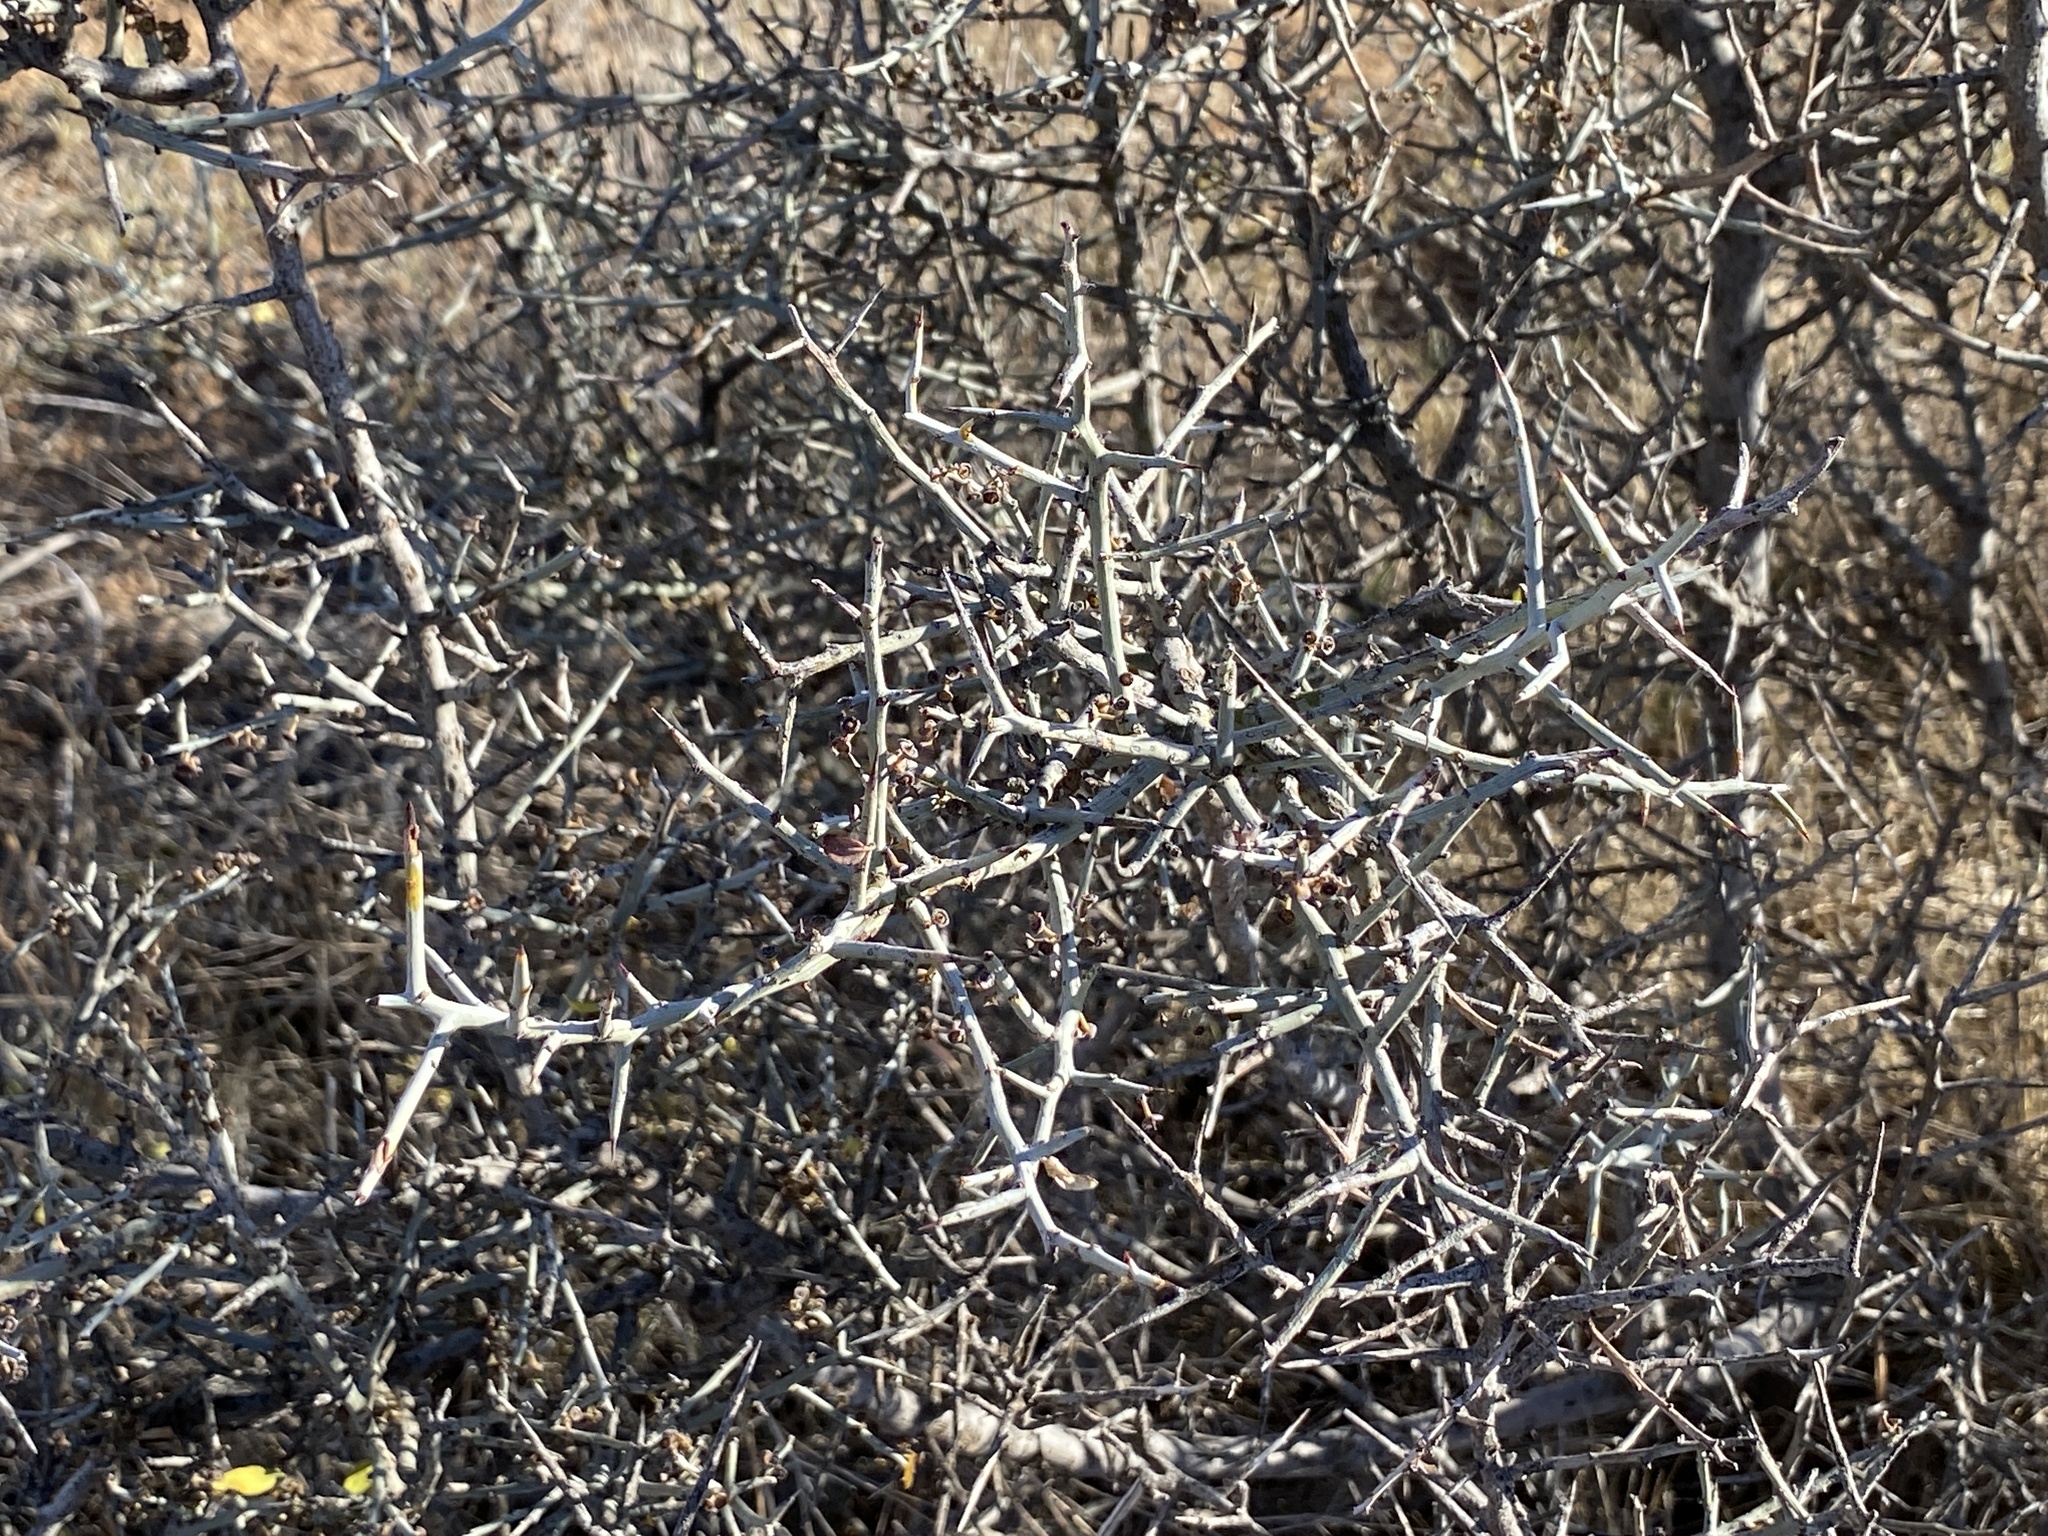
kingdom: Plantae
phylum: Tracheophyta
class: Magnoliopsida
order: Rosales
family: Rhamnaceae
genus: Sarcomphalus
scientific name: Sarcomphalus obtusifolius
